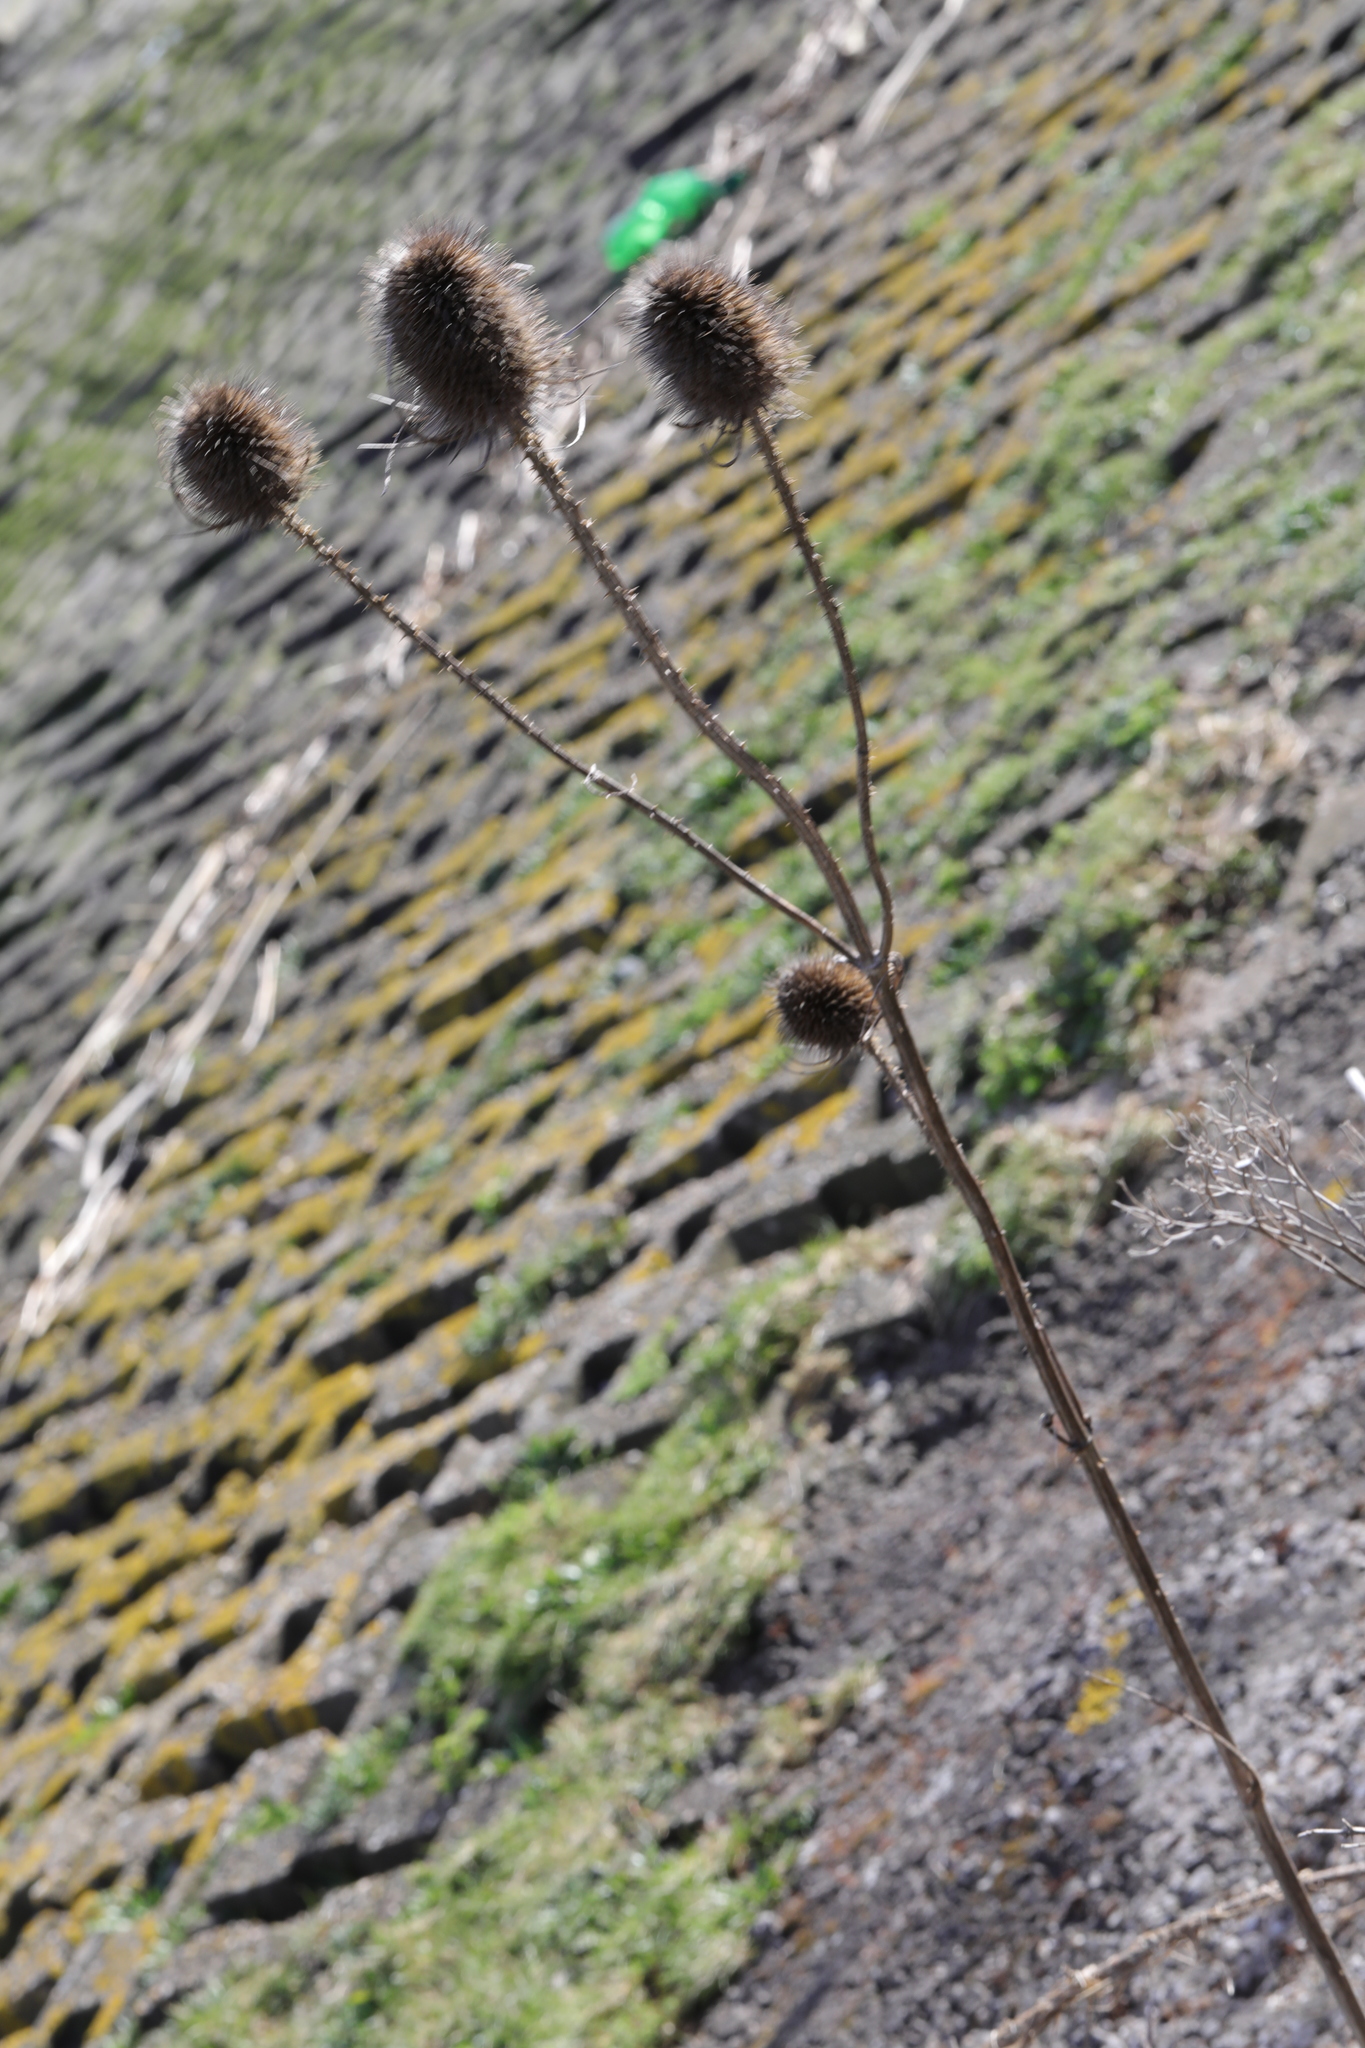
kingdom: Plantae
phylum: Tracheophyta
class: Magnoliopsida
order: Dipsacales
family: Caprifoliaceae
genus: Dipsacus
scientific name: Dipsacus fullonum
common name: Teasel
